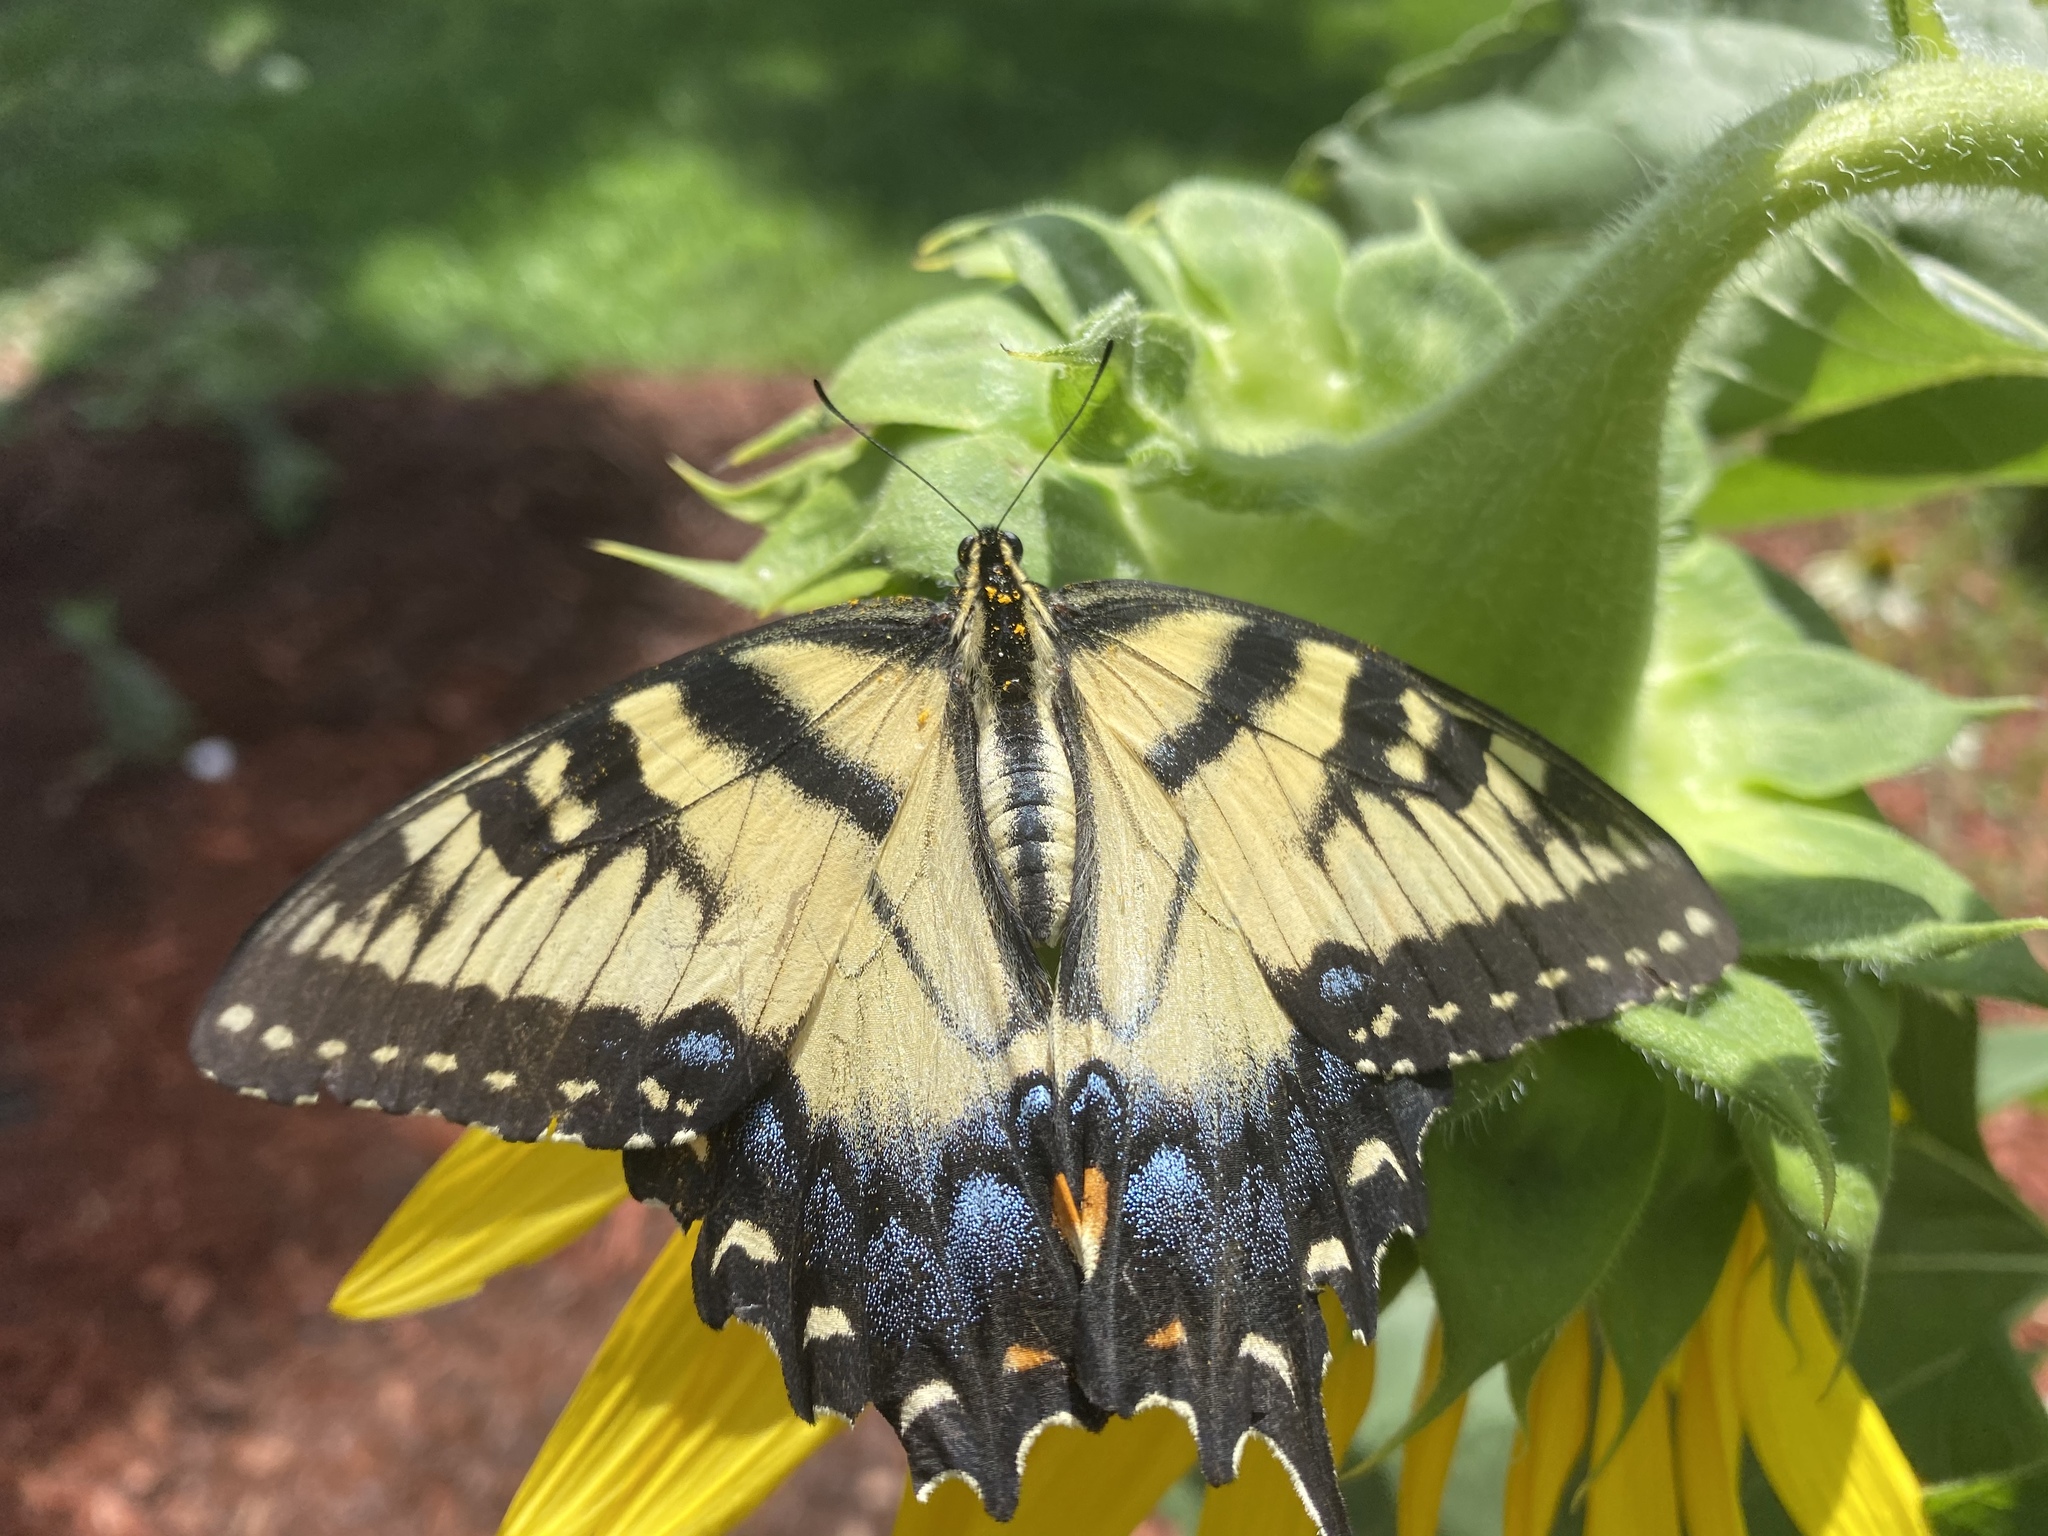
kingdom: Animalia
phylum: Arthropoda
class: Insecta
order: Lepidoptera
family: Papilionidae
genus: Papilio
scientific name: Papilio glaucus
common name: Tiger swallowtail
